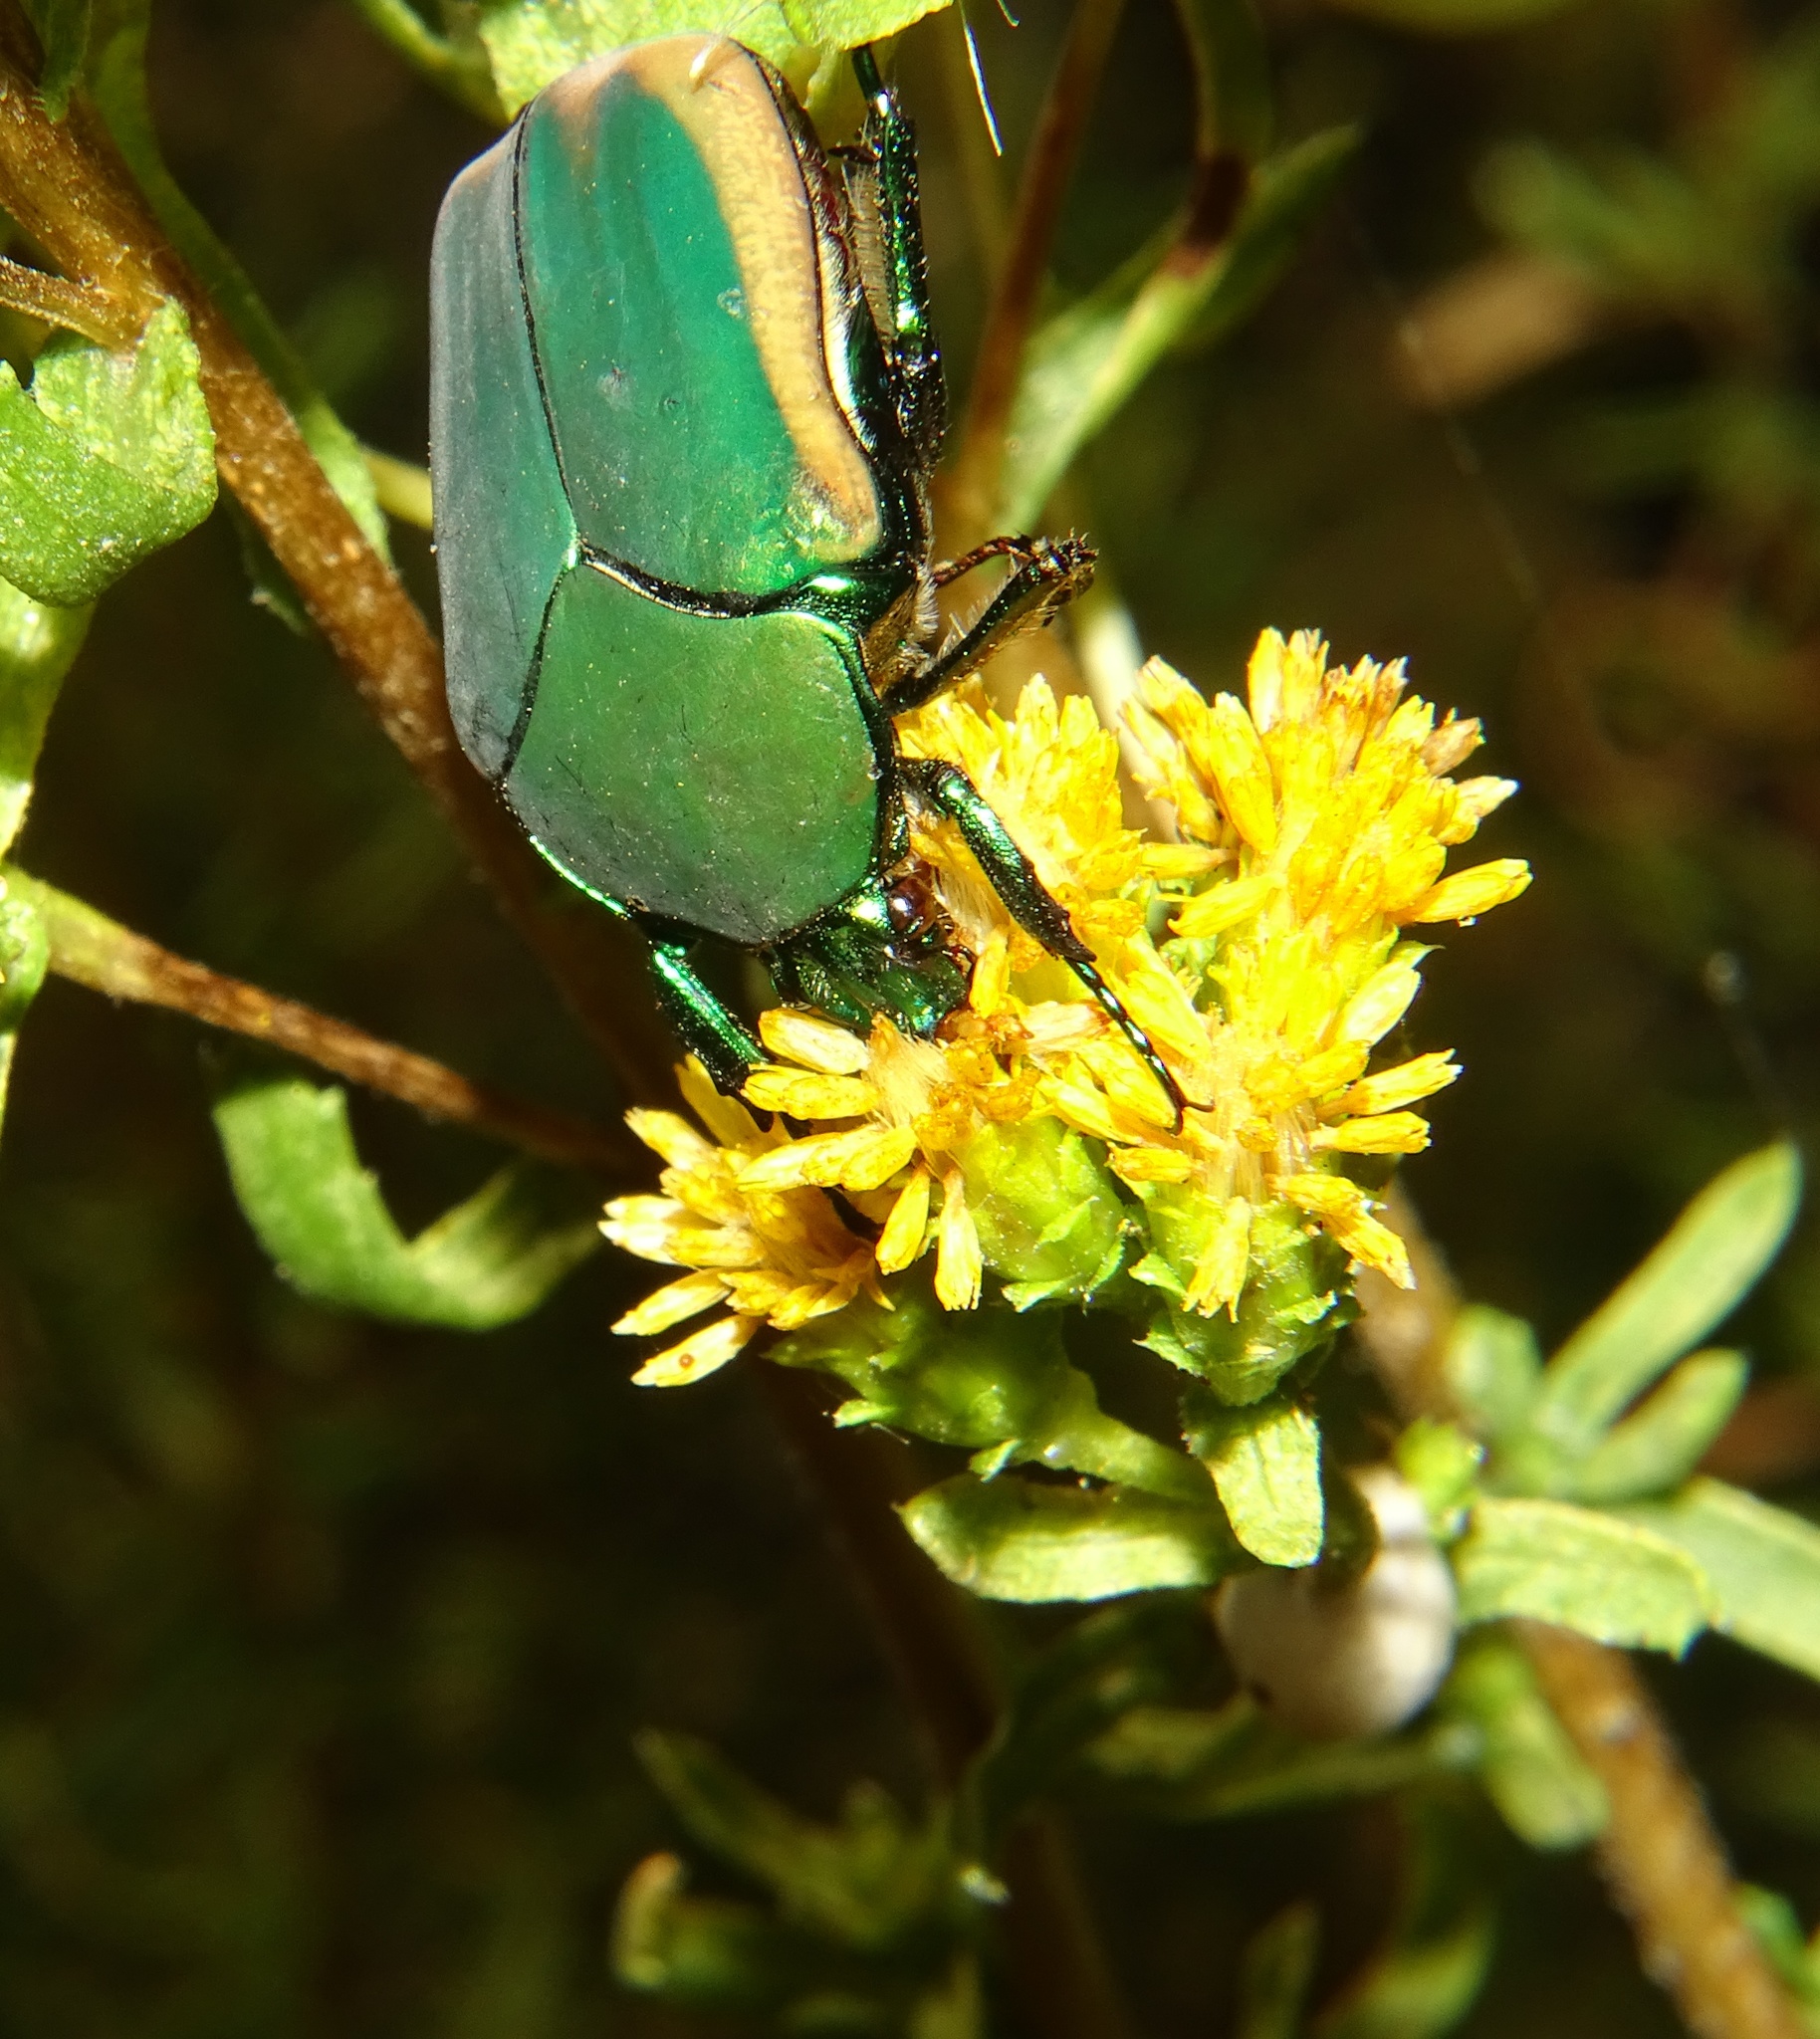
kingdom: Animalia
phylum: Arthropoda
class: Insecta
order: Coleoptera
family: Scarabaeidae
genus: Cotinis
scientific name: Cotinis mutabilis
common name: Figeater beetle
